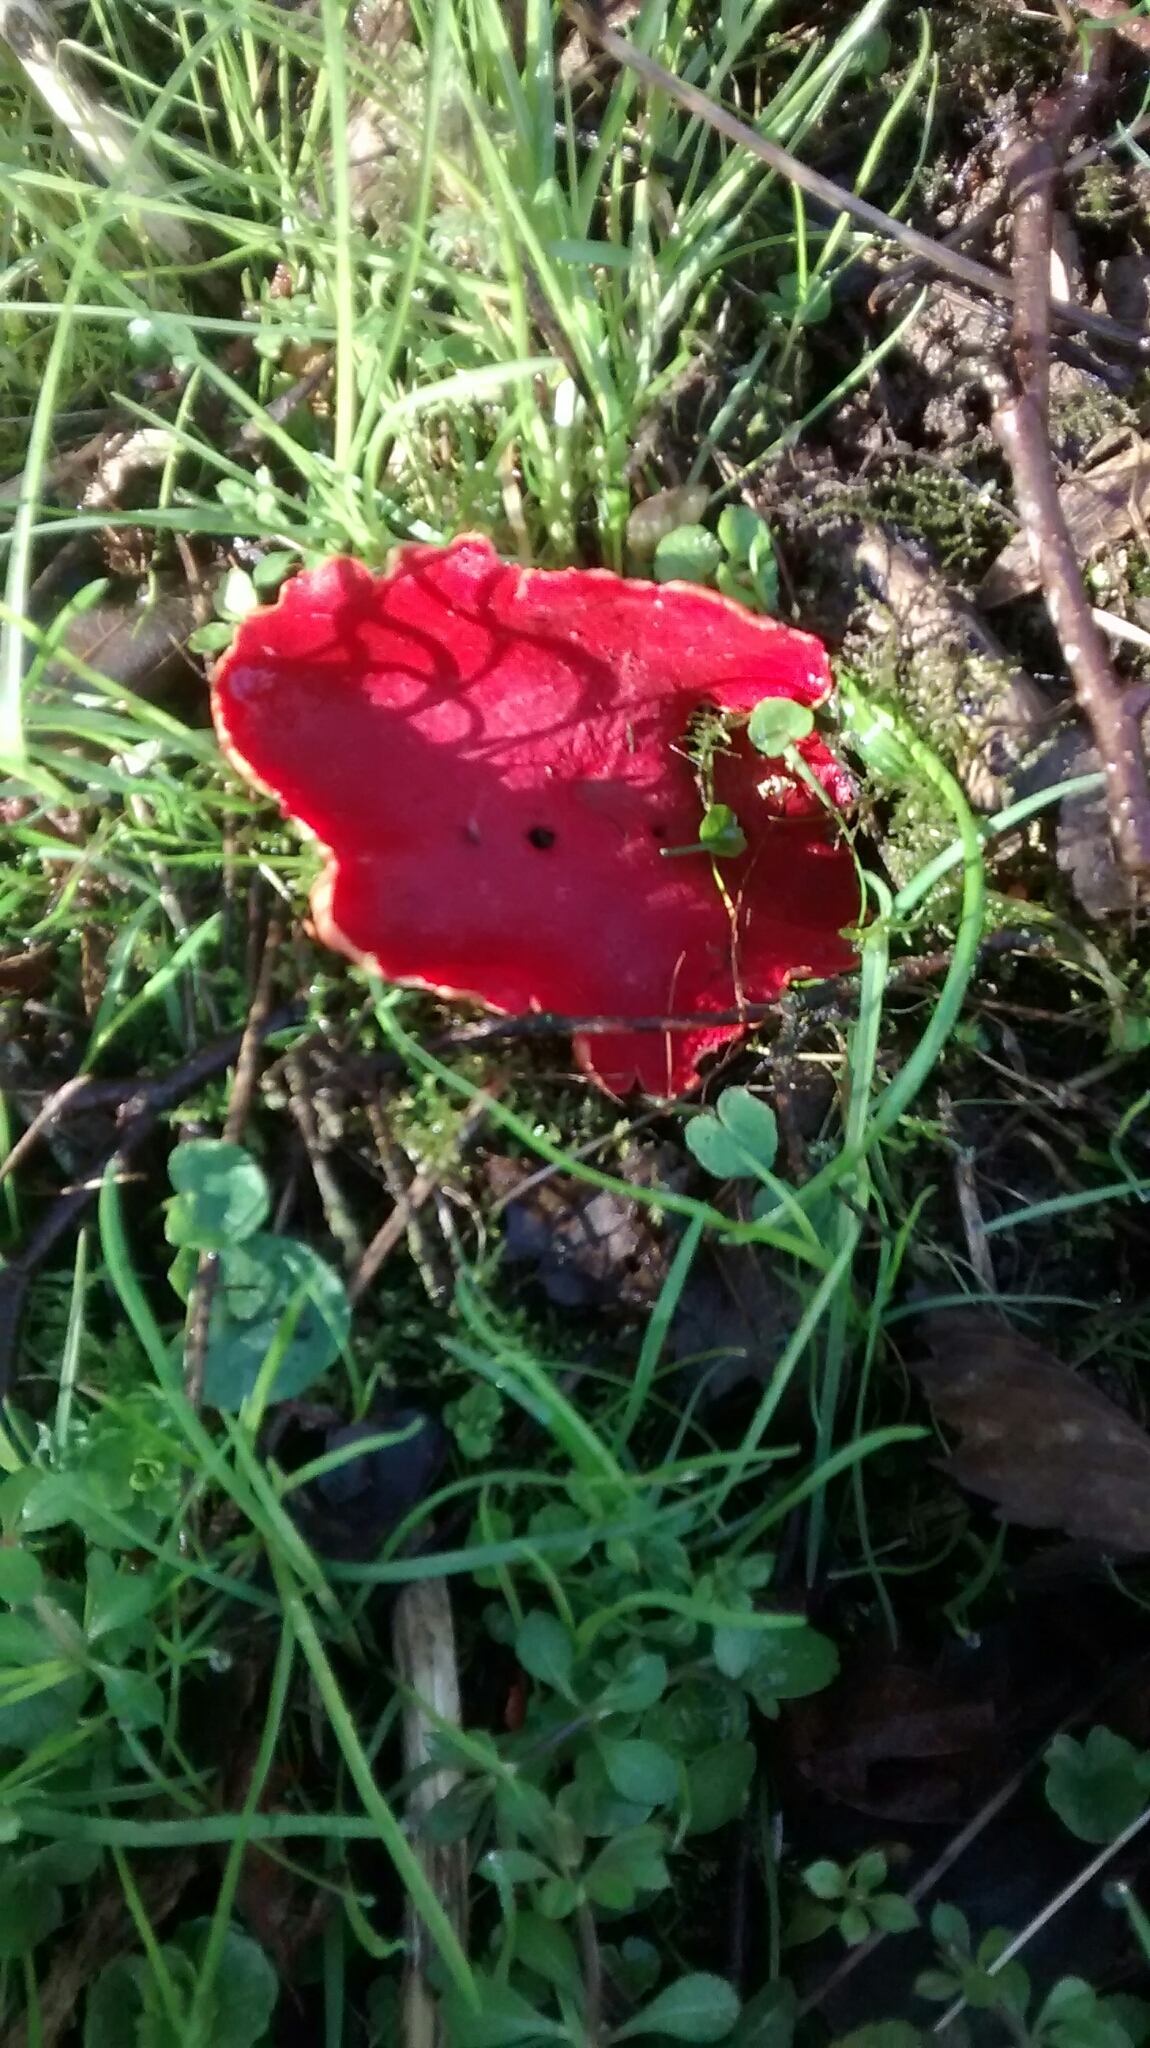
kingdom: Fungi
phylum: Ascomycota
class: Pezizomycetes
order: Pezizales
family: Sarcoscyphaceae
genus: Sarcoscypha
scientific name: Sarcoscypha
